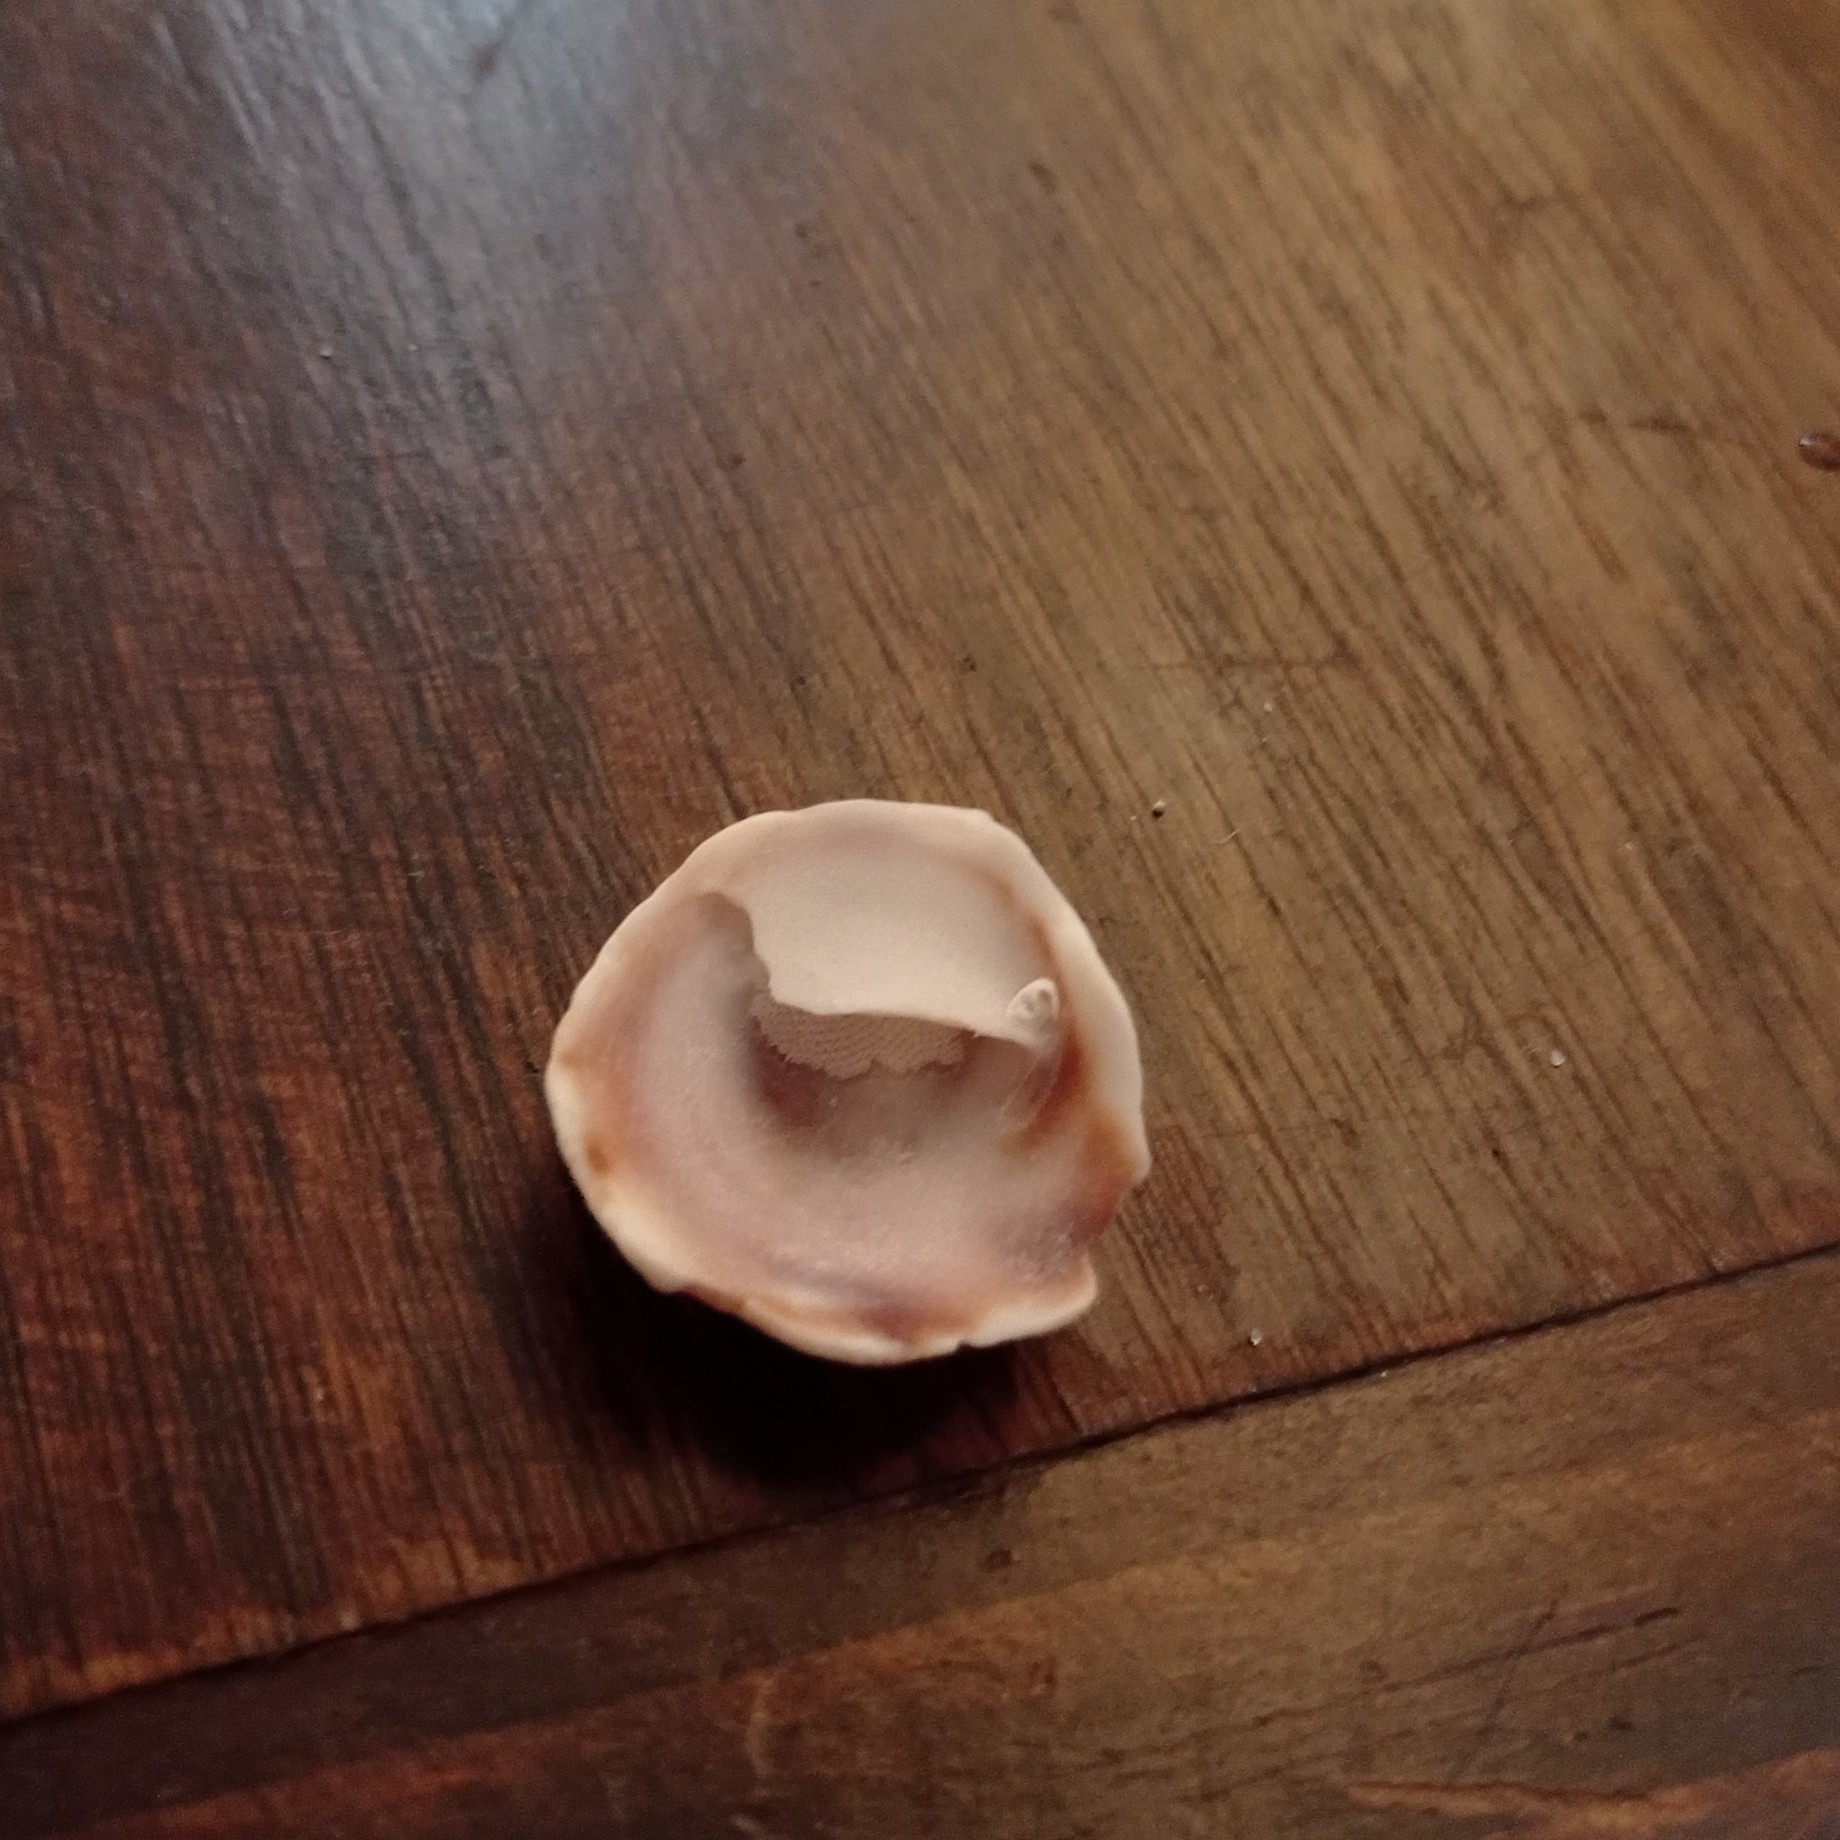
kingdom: Animalia
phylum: Mollusca
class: Gastropoda
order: Littorinimorpha
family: Calyptraeidae
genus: Crepipatella
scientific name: Crepipatella dilatata
